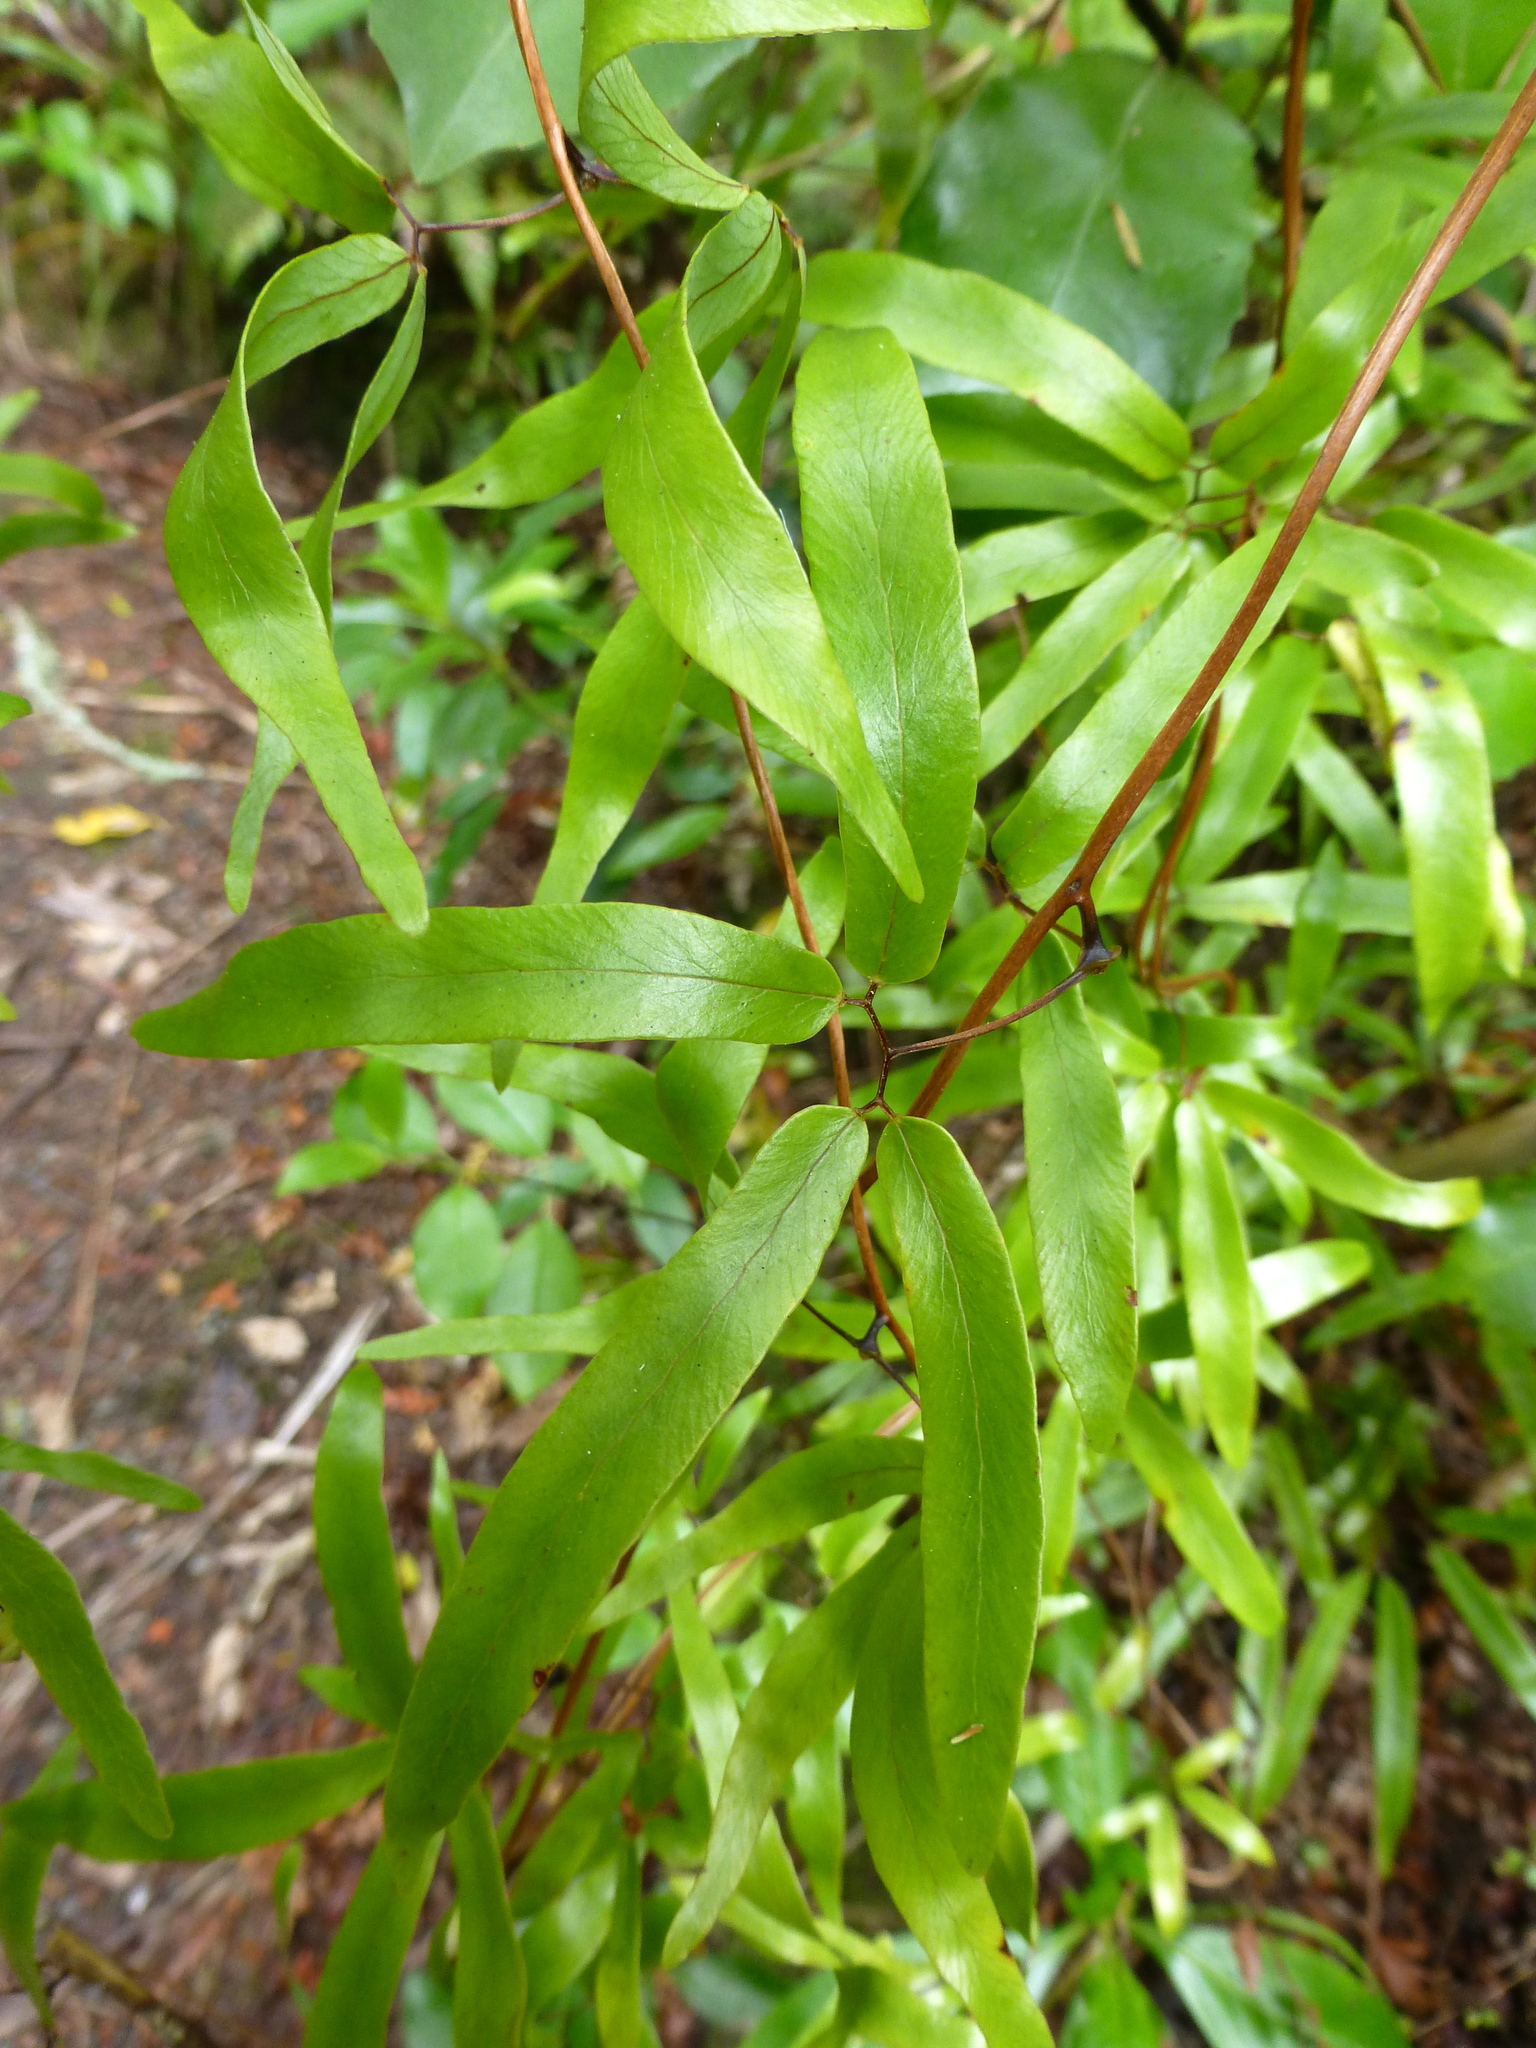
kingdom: Plantae
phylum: Tracheophyta
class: Polypodiopsida
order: Schizaeales
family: Lygodiaceae
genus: Lygodium
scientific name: Lygodium articulatum
